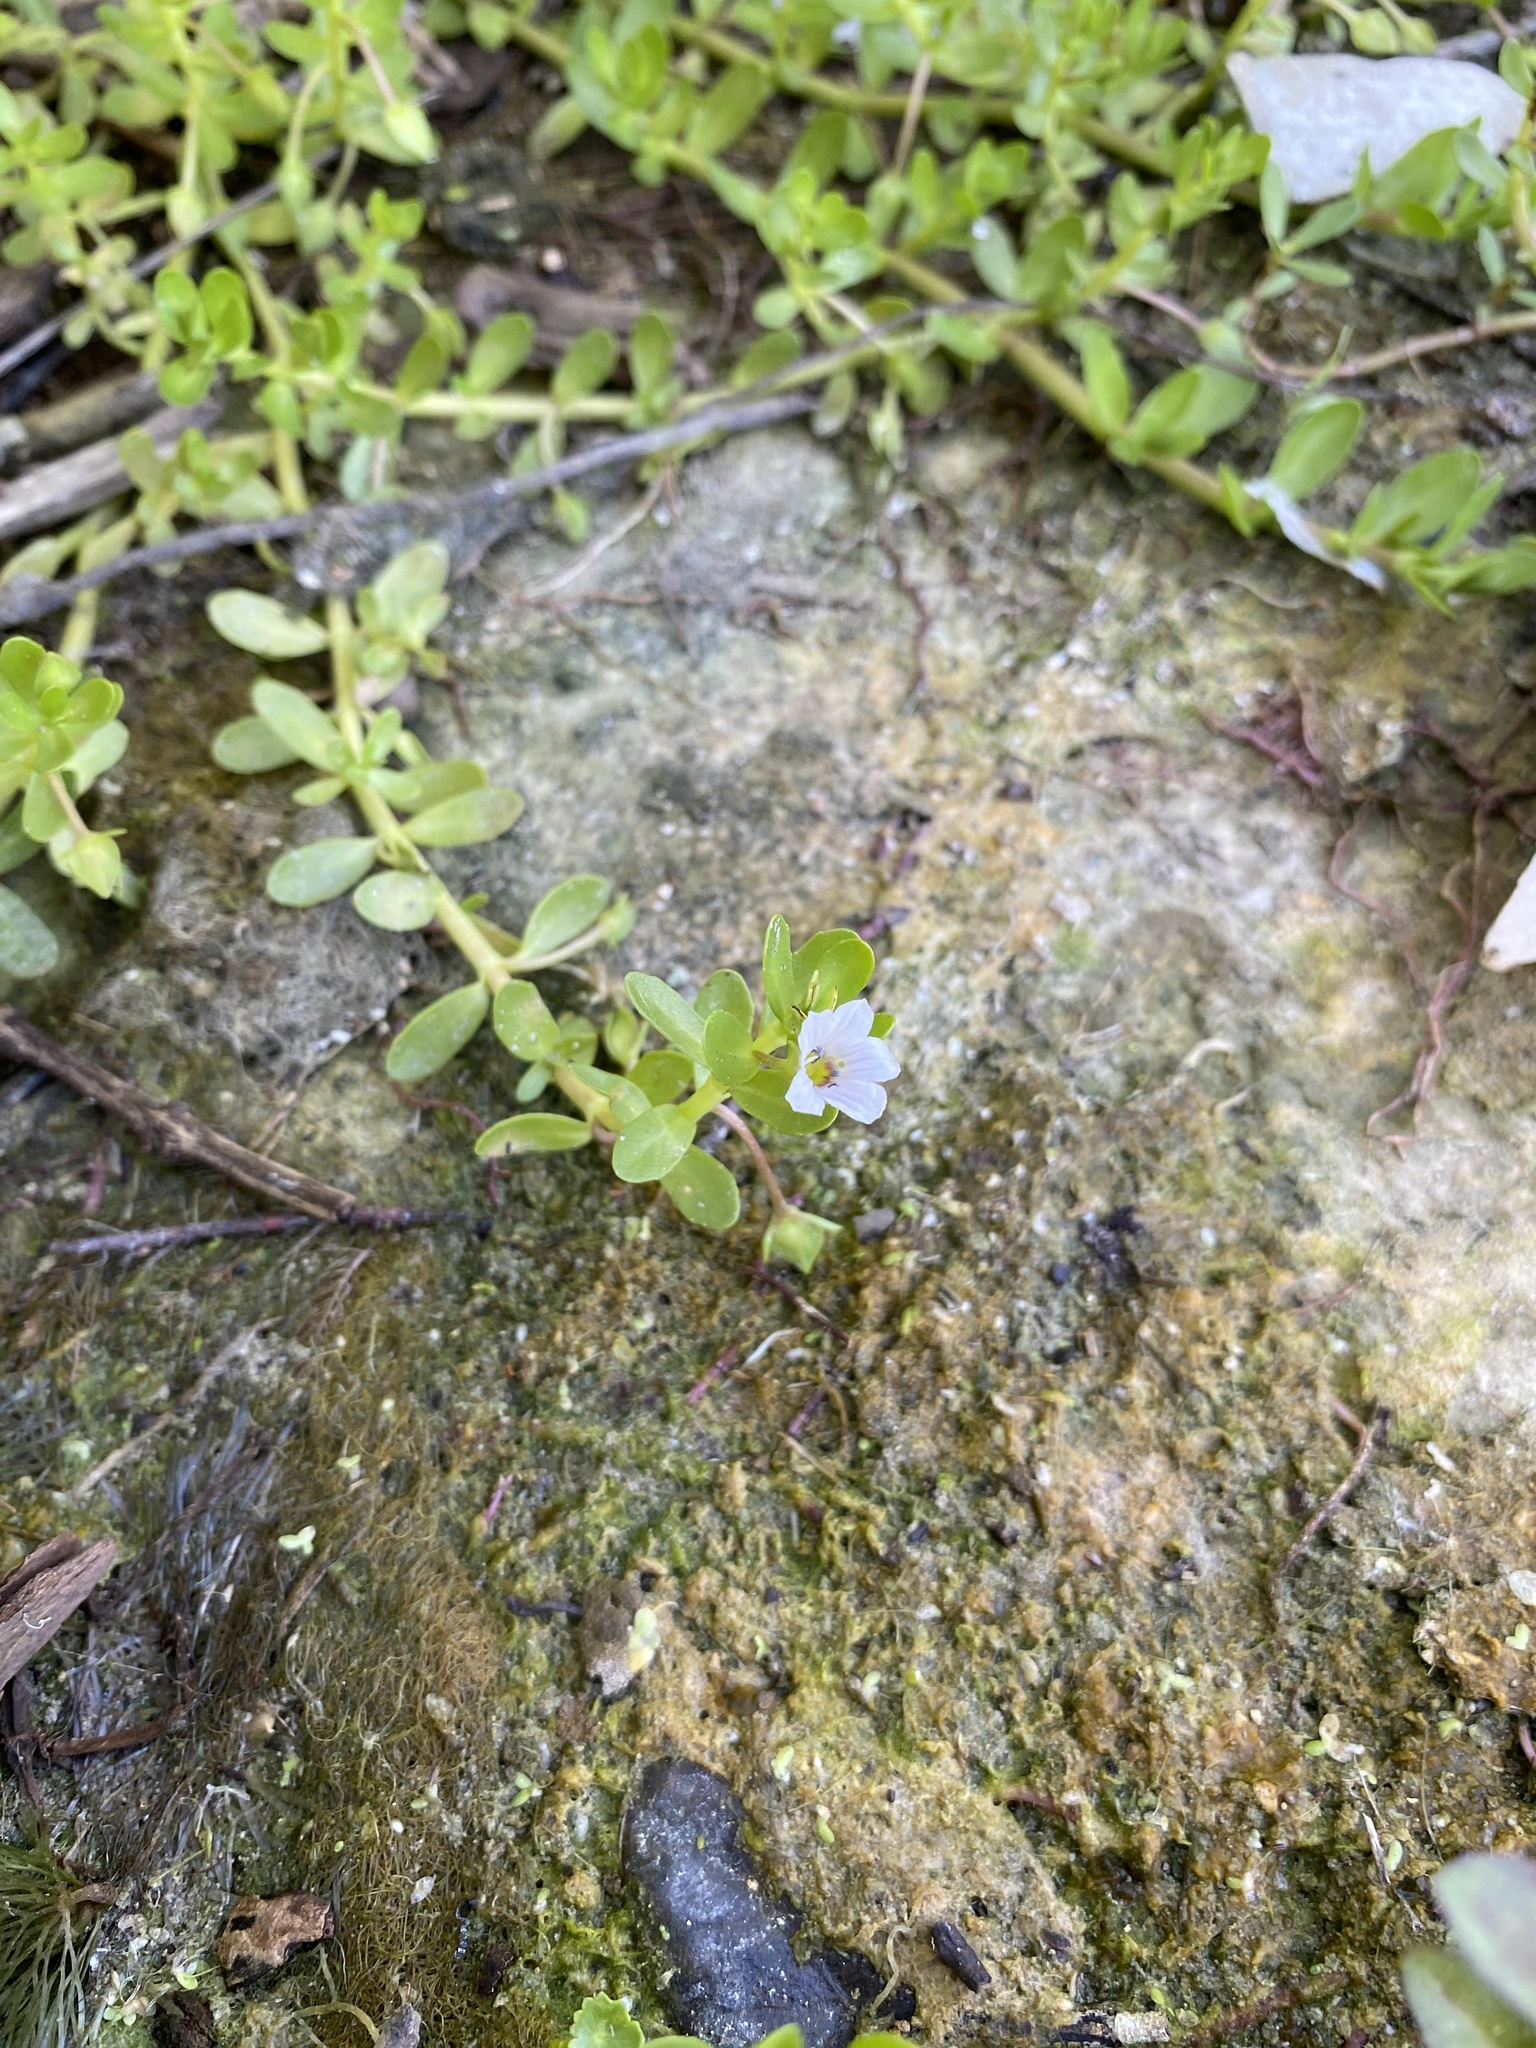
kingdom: Plantae
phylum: Tracheophyta
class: Magnoliopsida
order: Lamiales
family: Plantaginaceae
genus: Bacopa
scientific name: Bacopa monnieri
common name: Indian-pennywort
